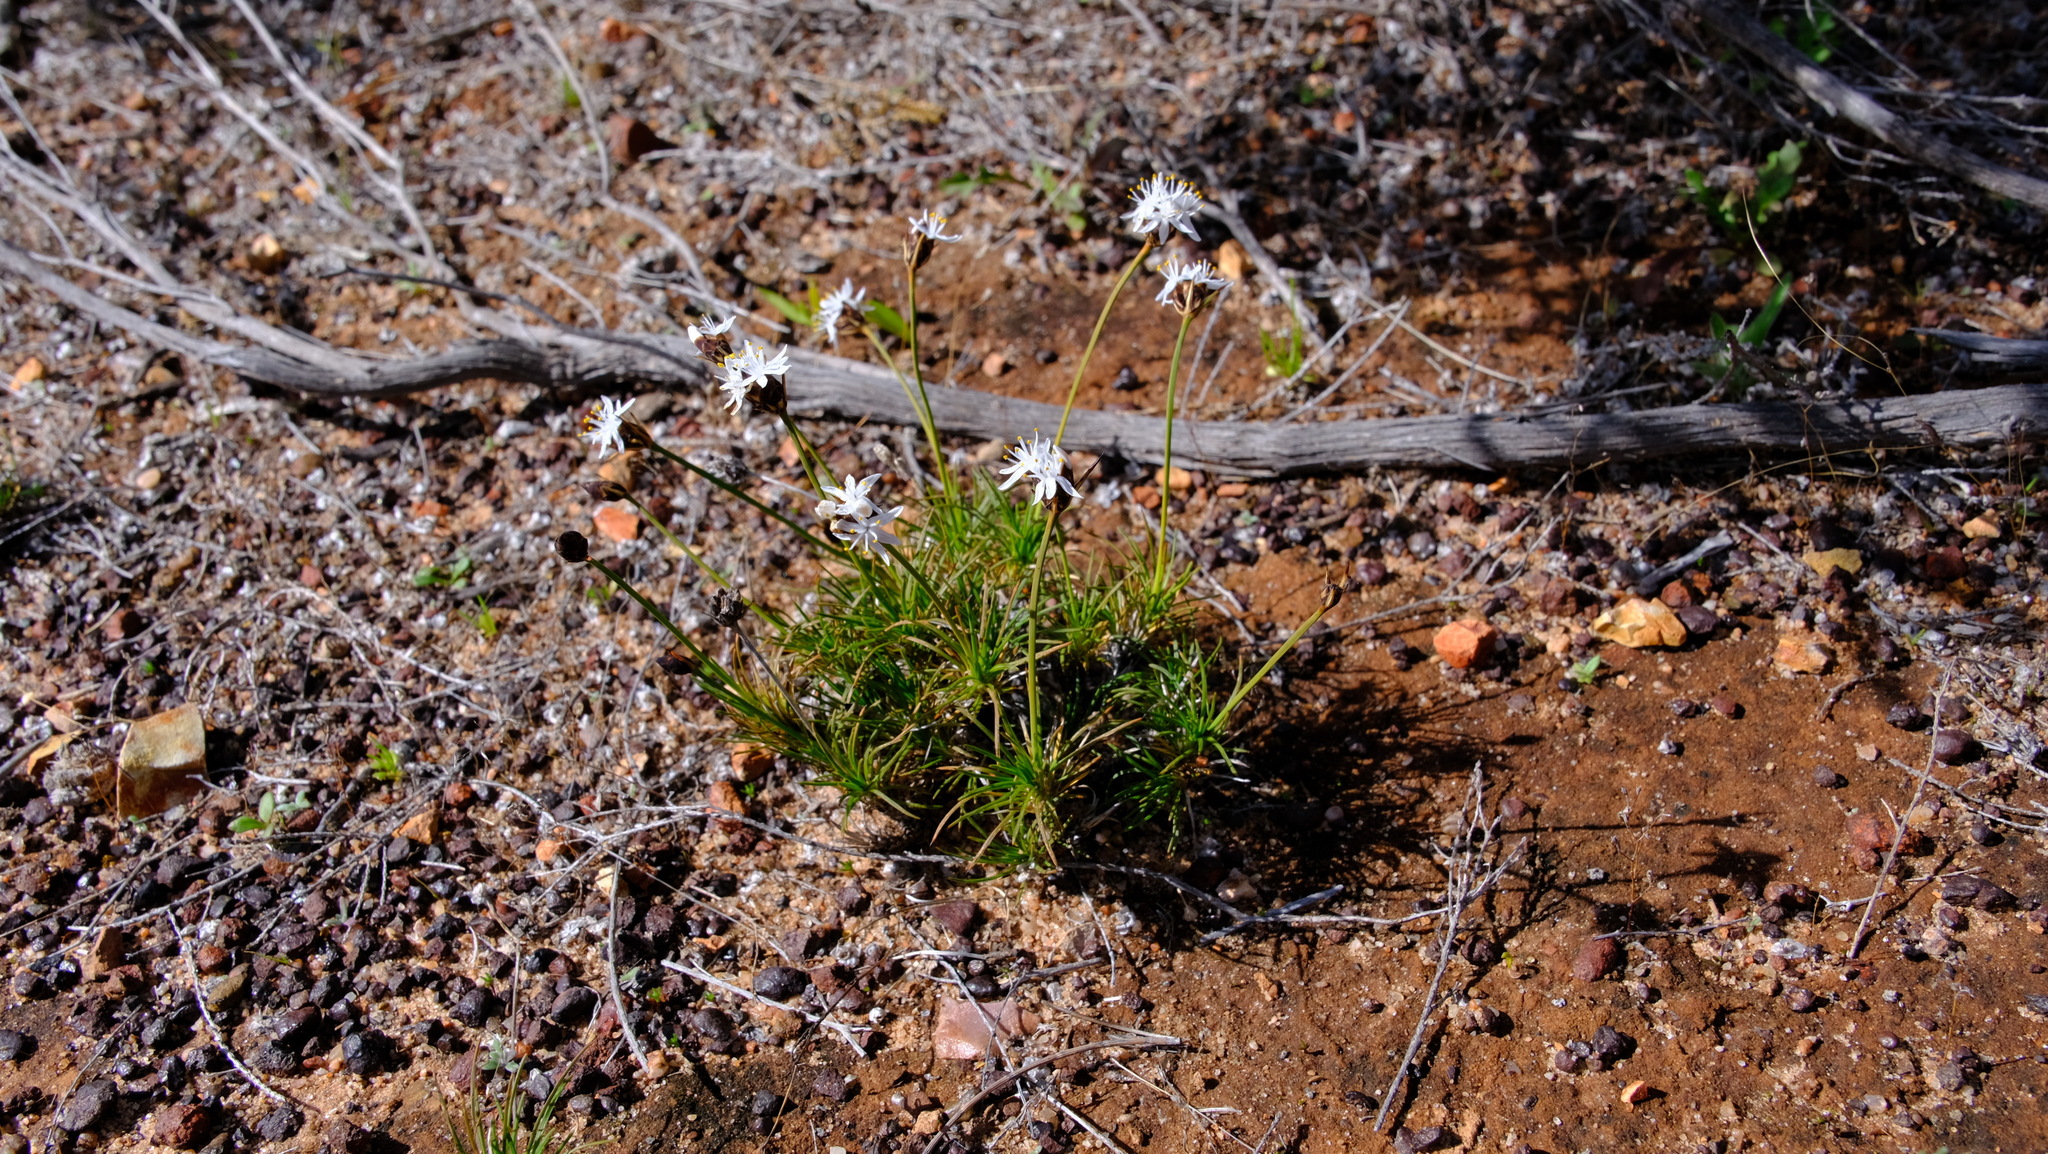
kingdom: Plantae
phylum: Tracheophyta
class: Liliopsida
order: Asparagales
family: Boryaceae
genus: Borya
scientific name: Borya sphaerocephala
